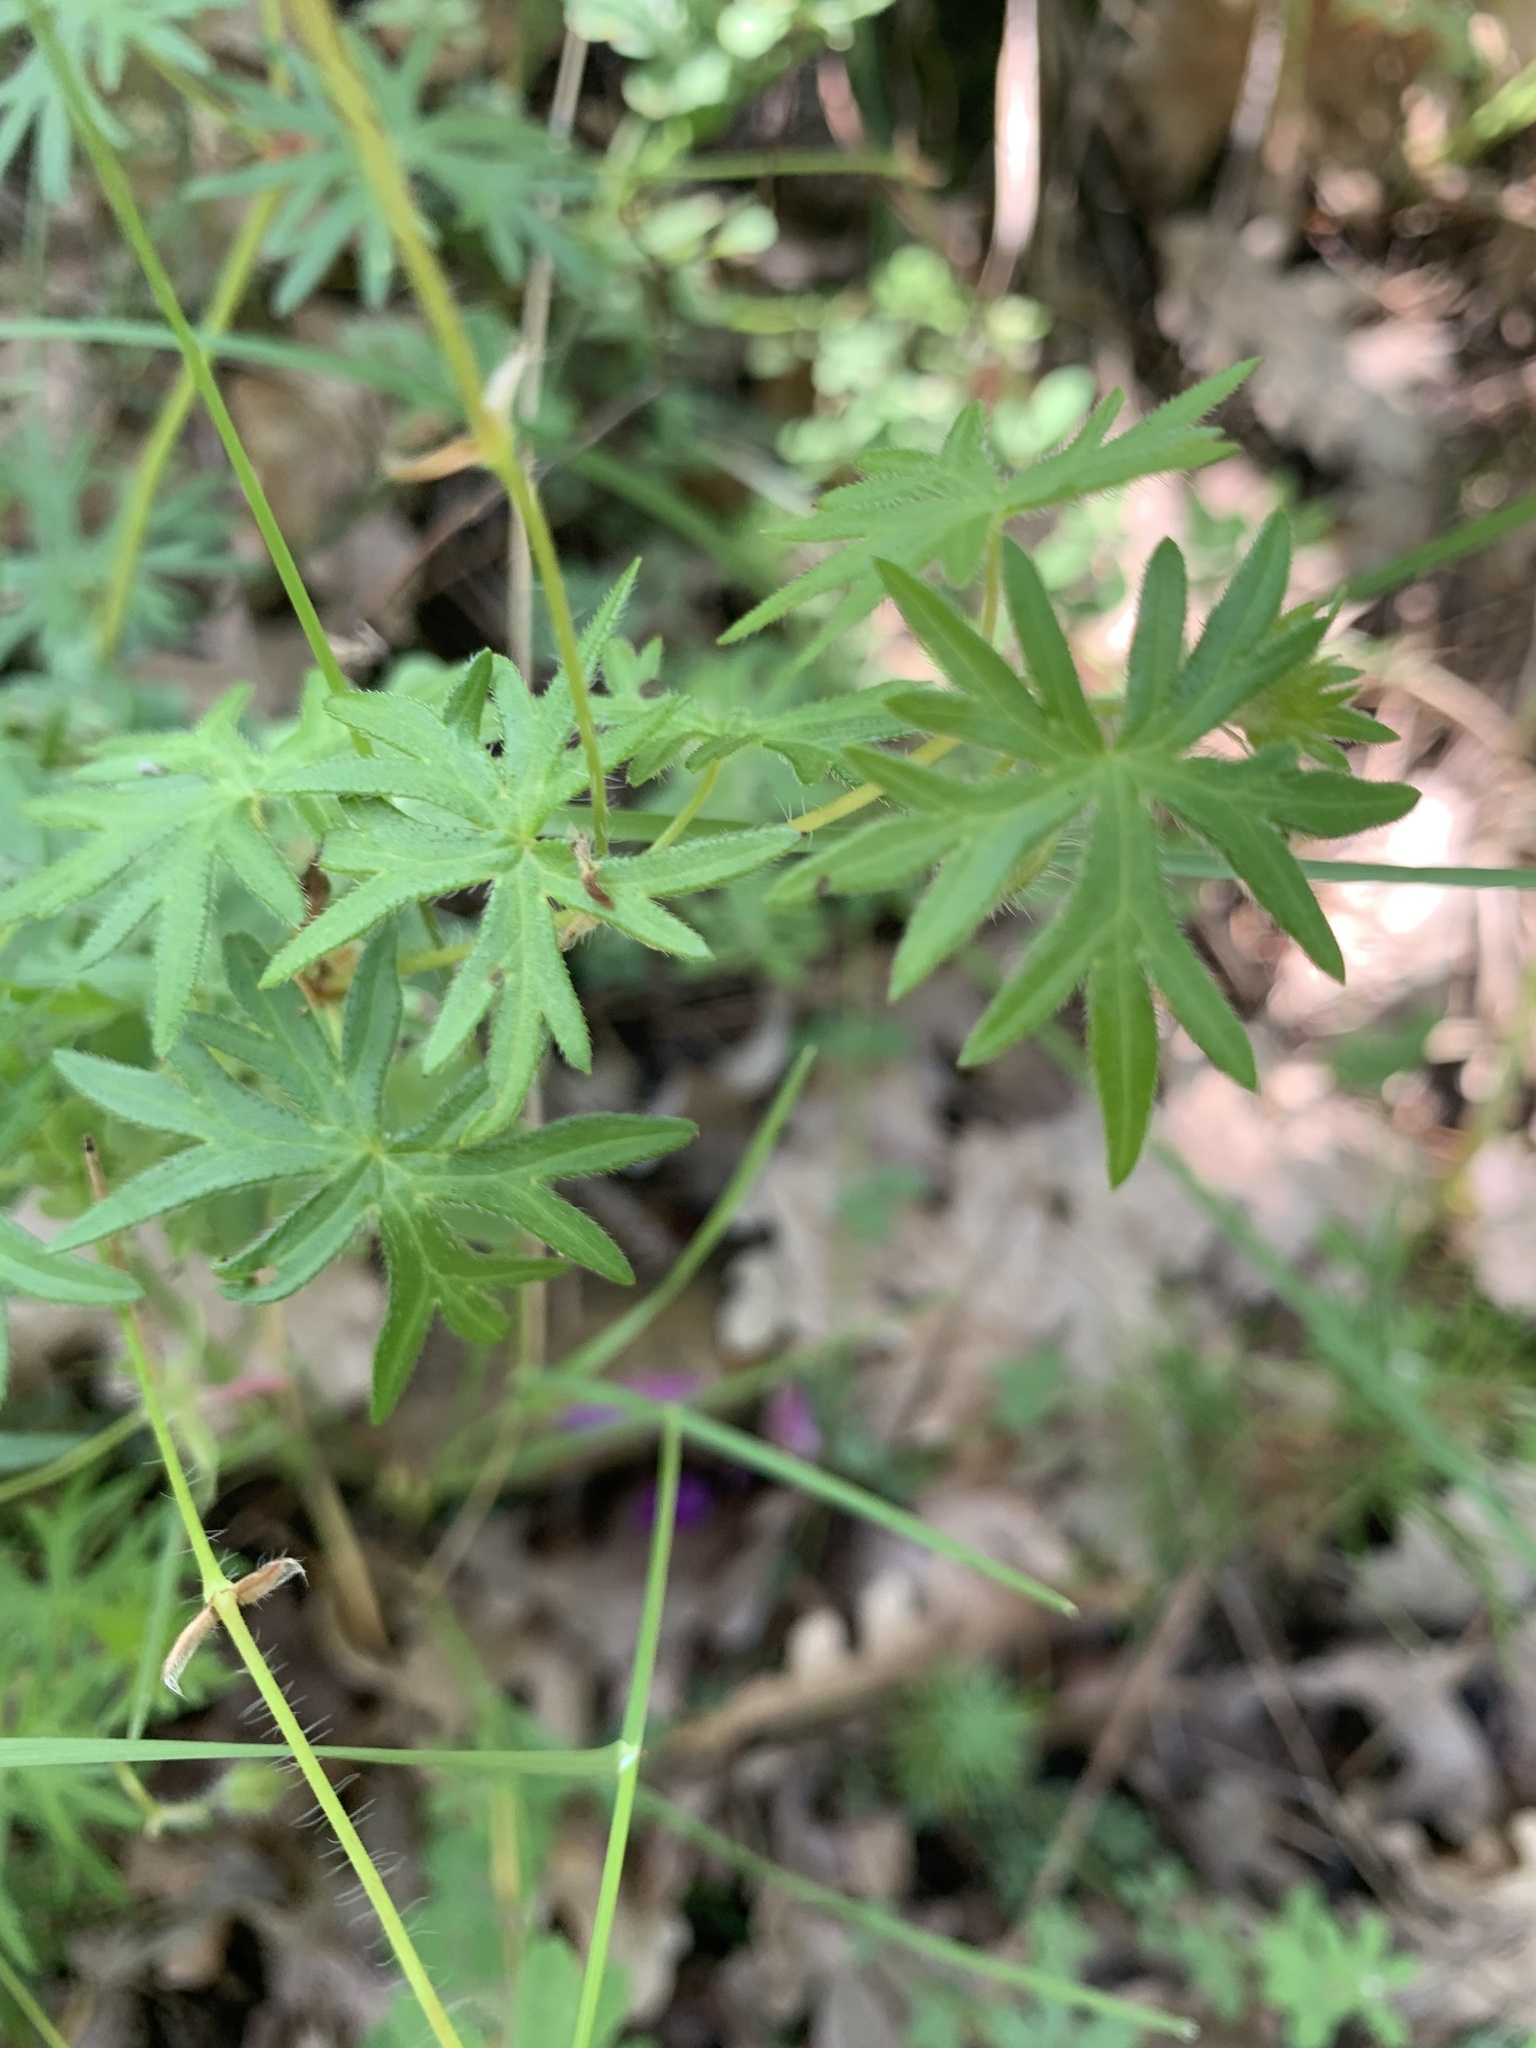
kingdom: Plantae
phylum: Tracheophyta
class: Magnoliopsida
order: Geraniales
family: Geraniaceae
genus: Geranium
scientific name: Geranium sanguineum
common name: Bloody crane's-bill
